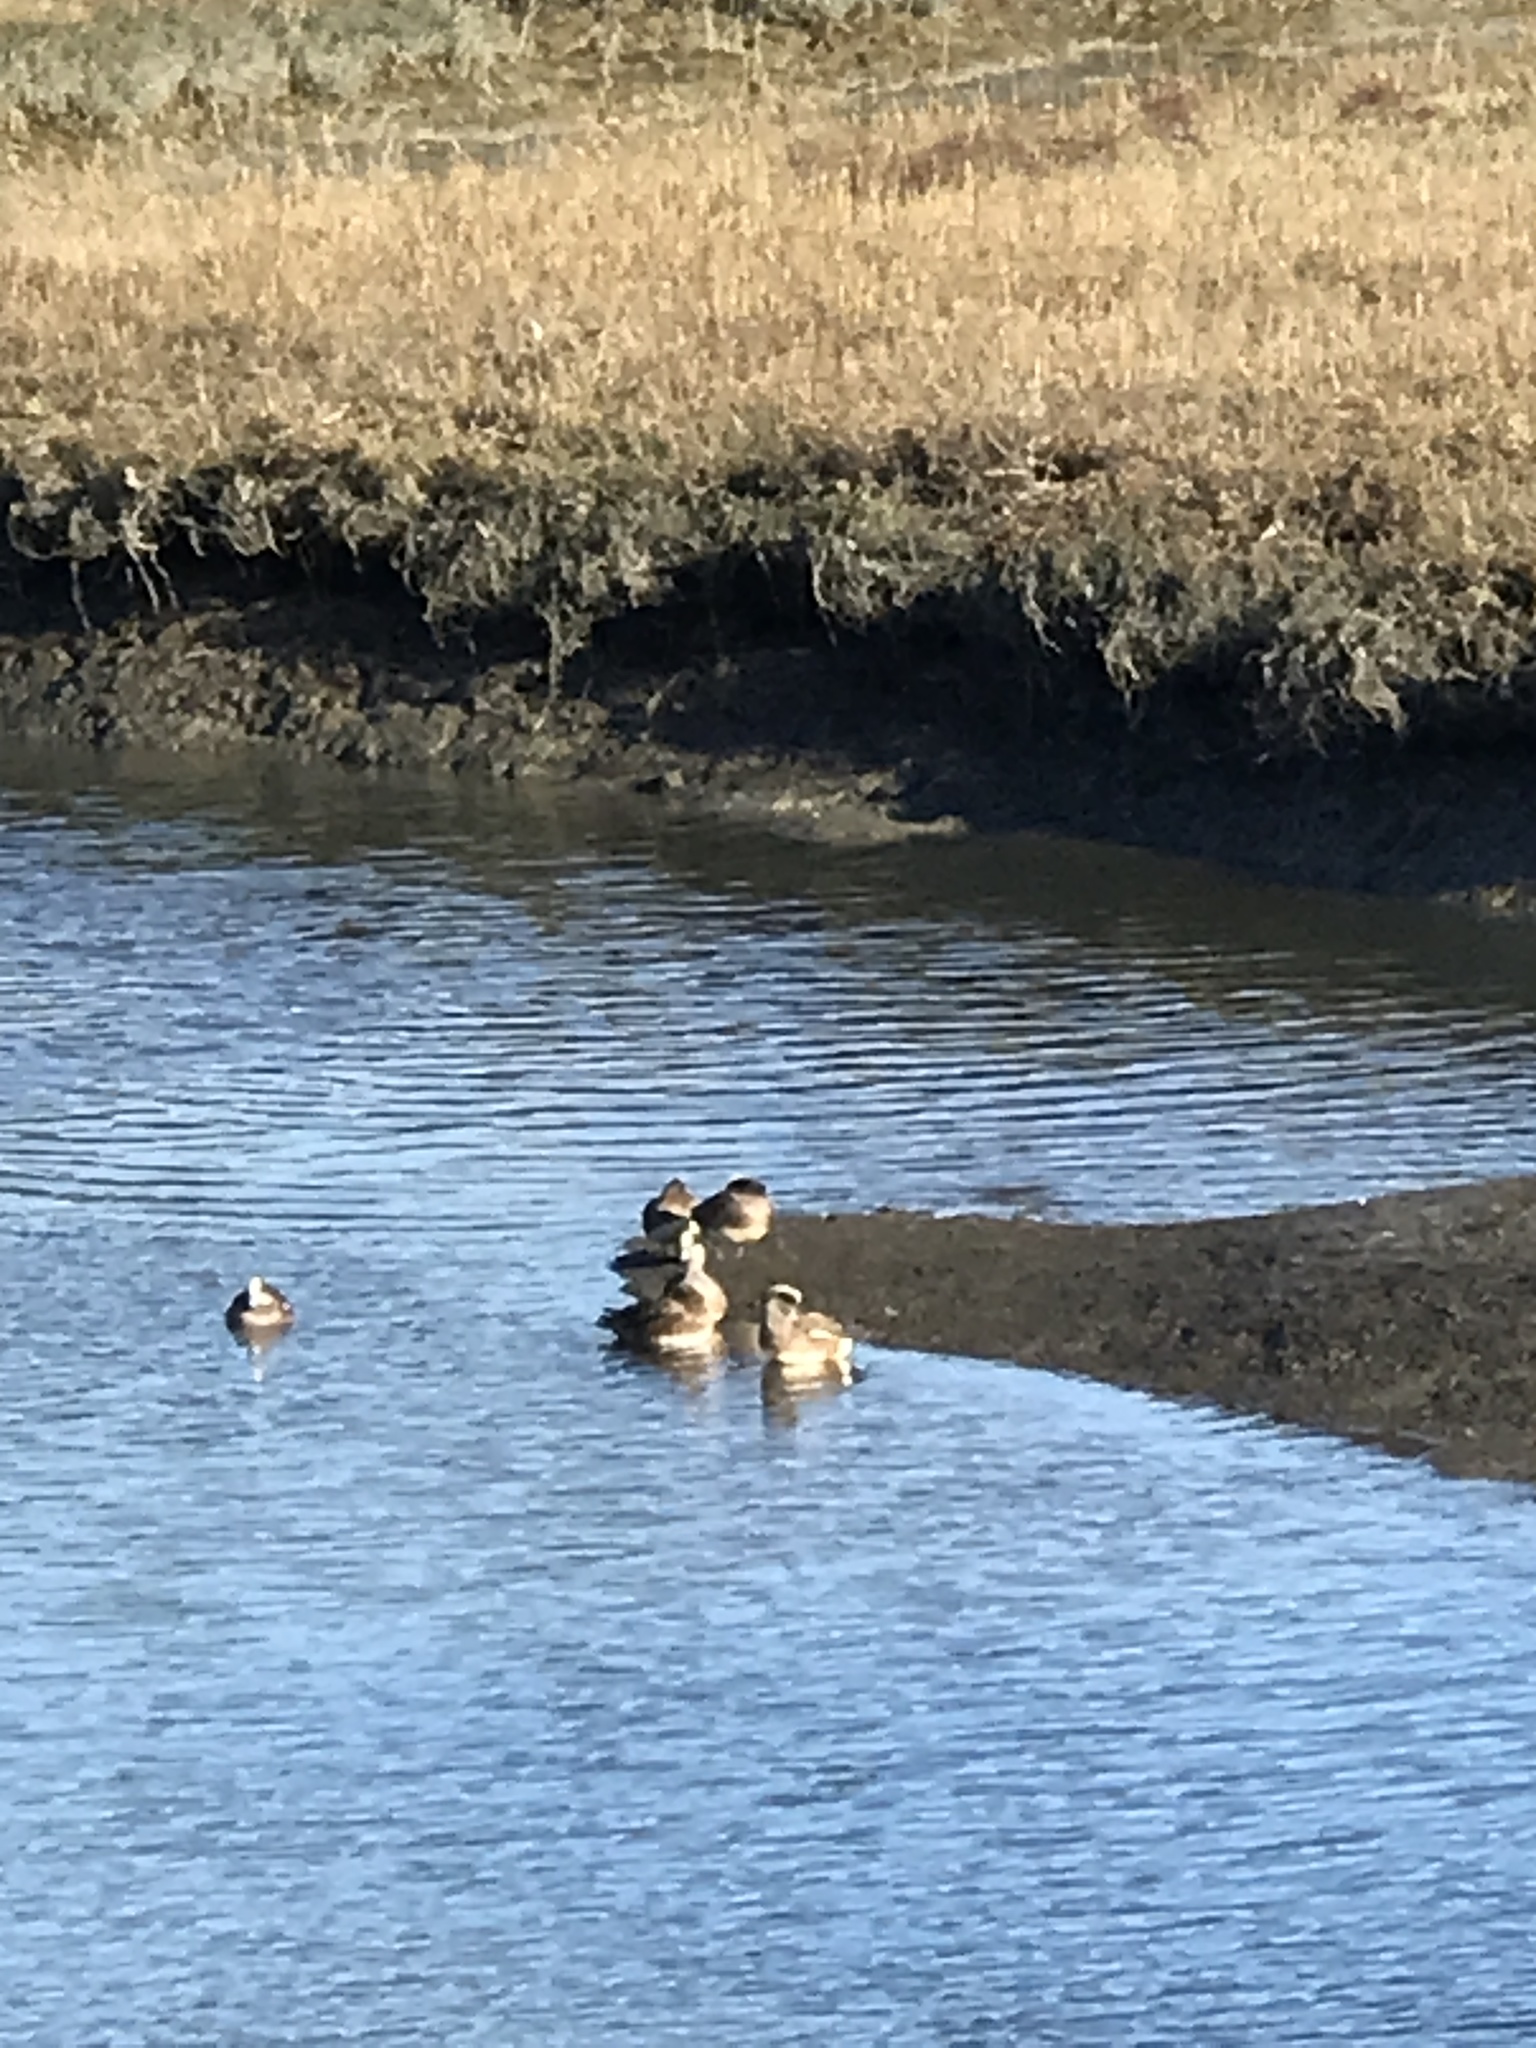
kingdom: Animalia
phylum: Chordata
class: Aves
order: Anseriformes
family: Anatidae
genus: Mareca
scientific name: Mareca americana
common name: American wigeon
